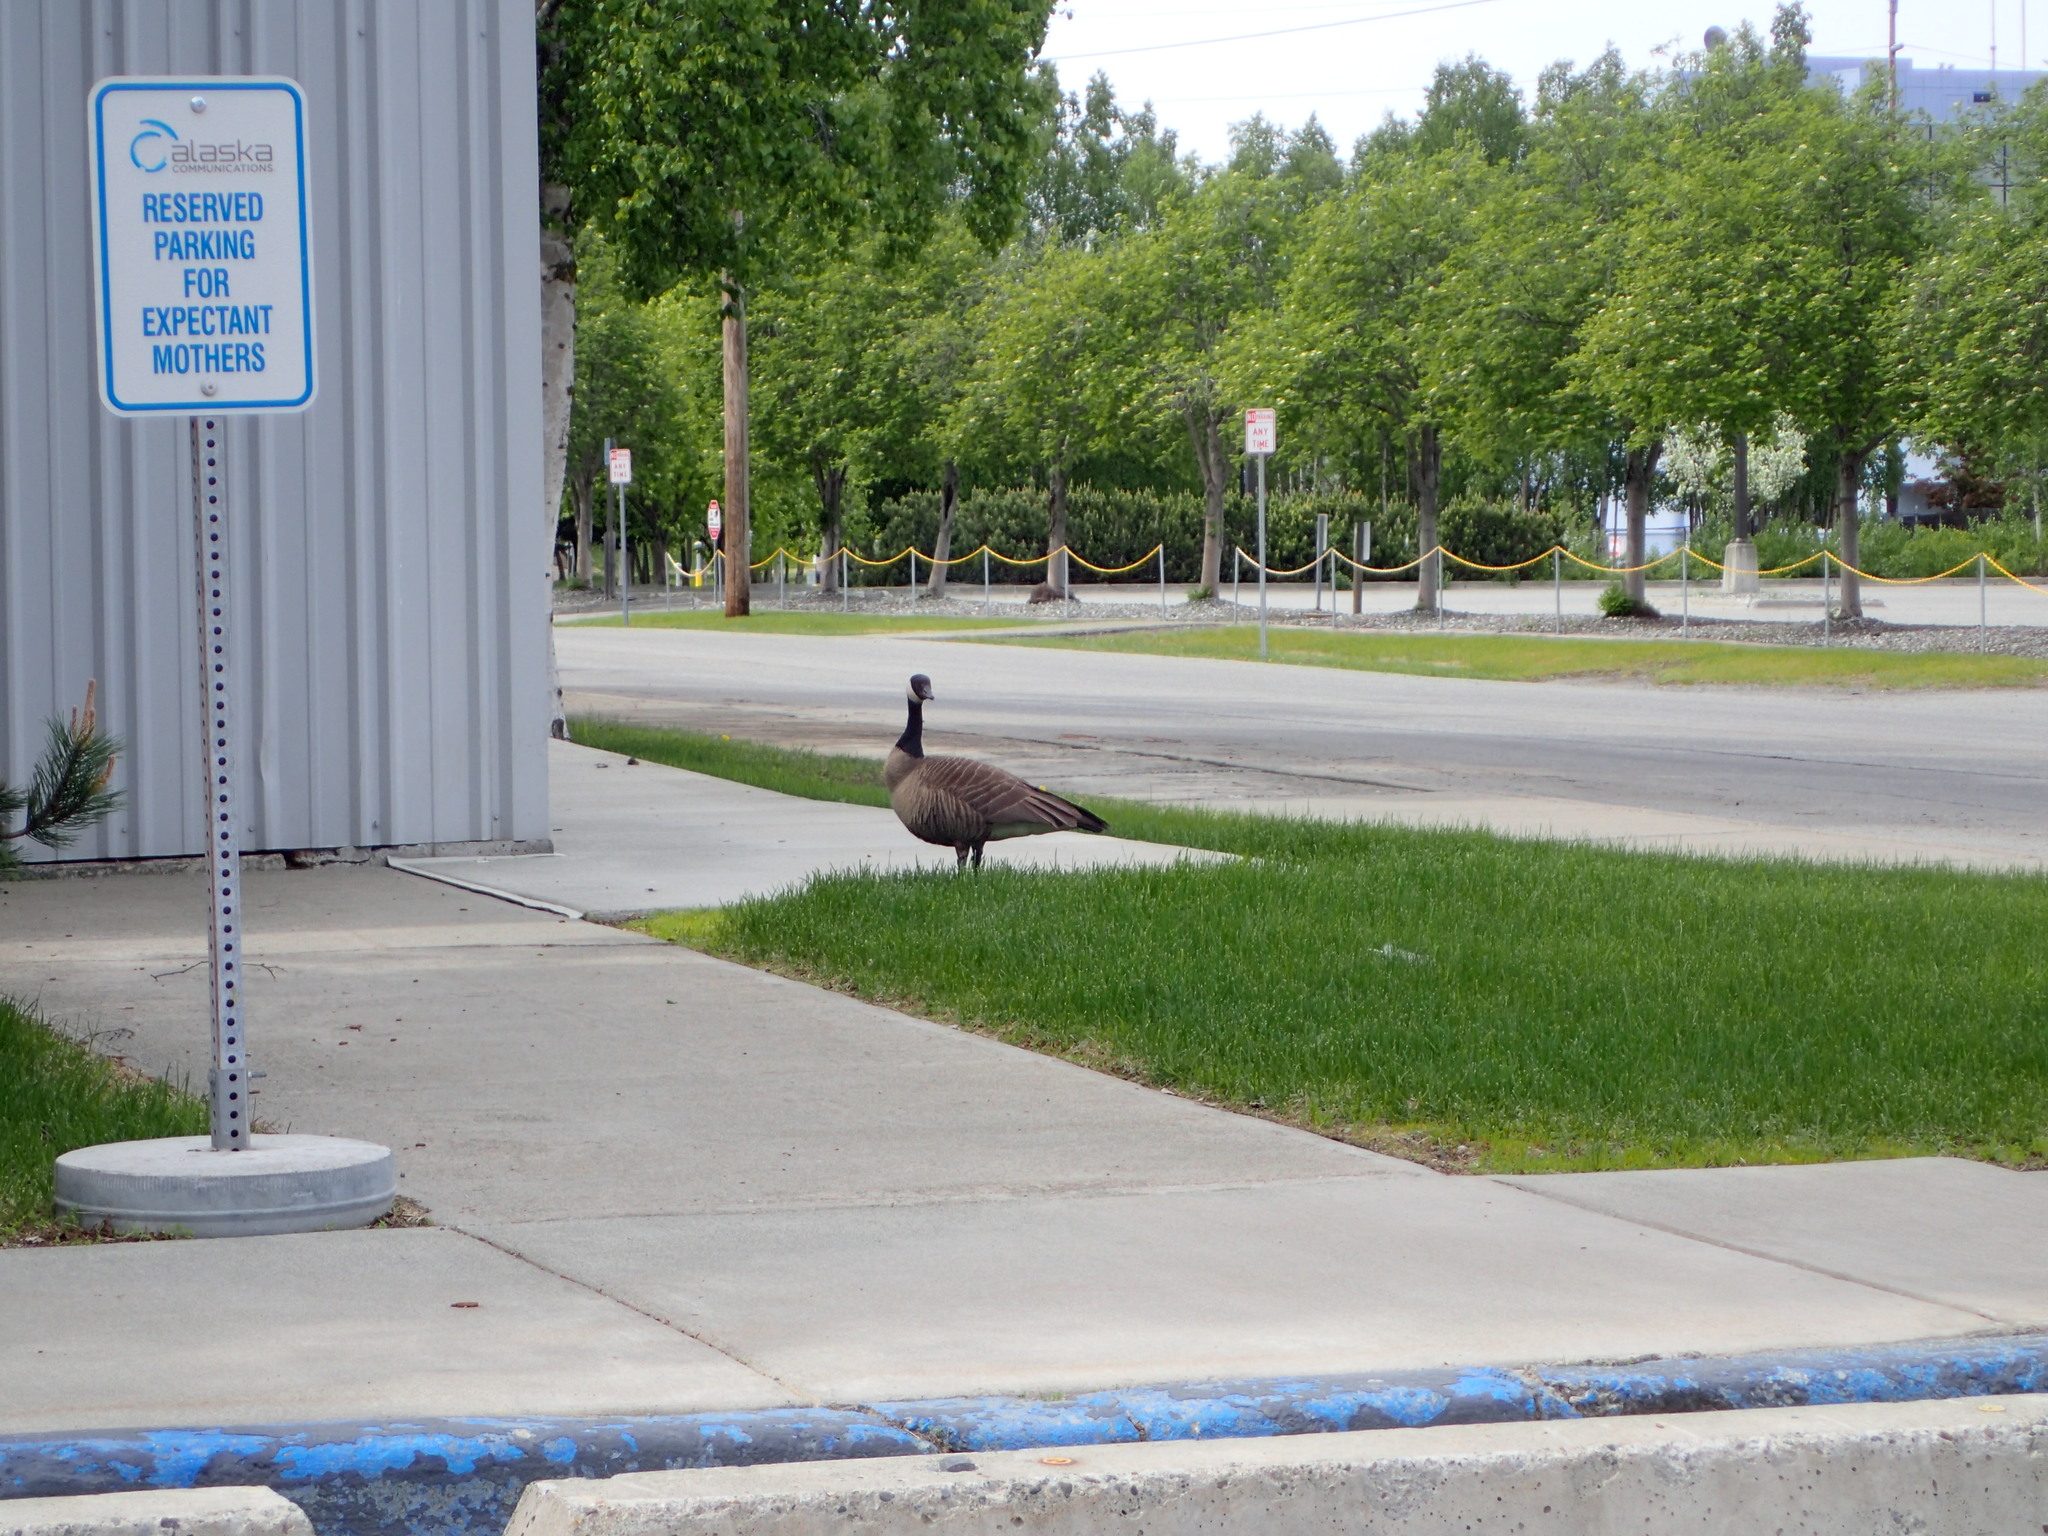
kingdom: Animalia
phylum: Chordata
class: Aves
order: Anseriformes
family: Anatidae
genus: Branta
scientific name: Branta canadensis
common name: Canada goose
